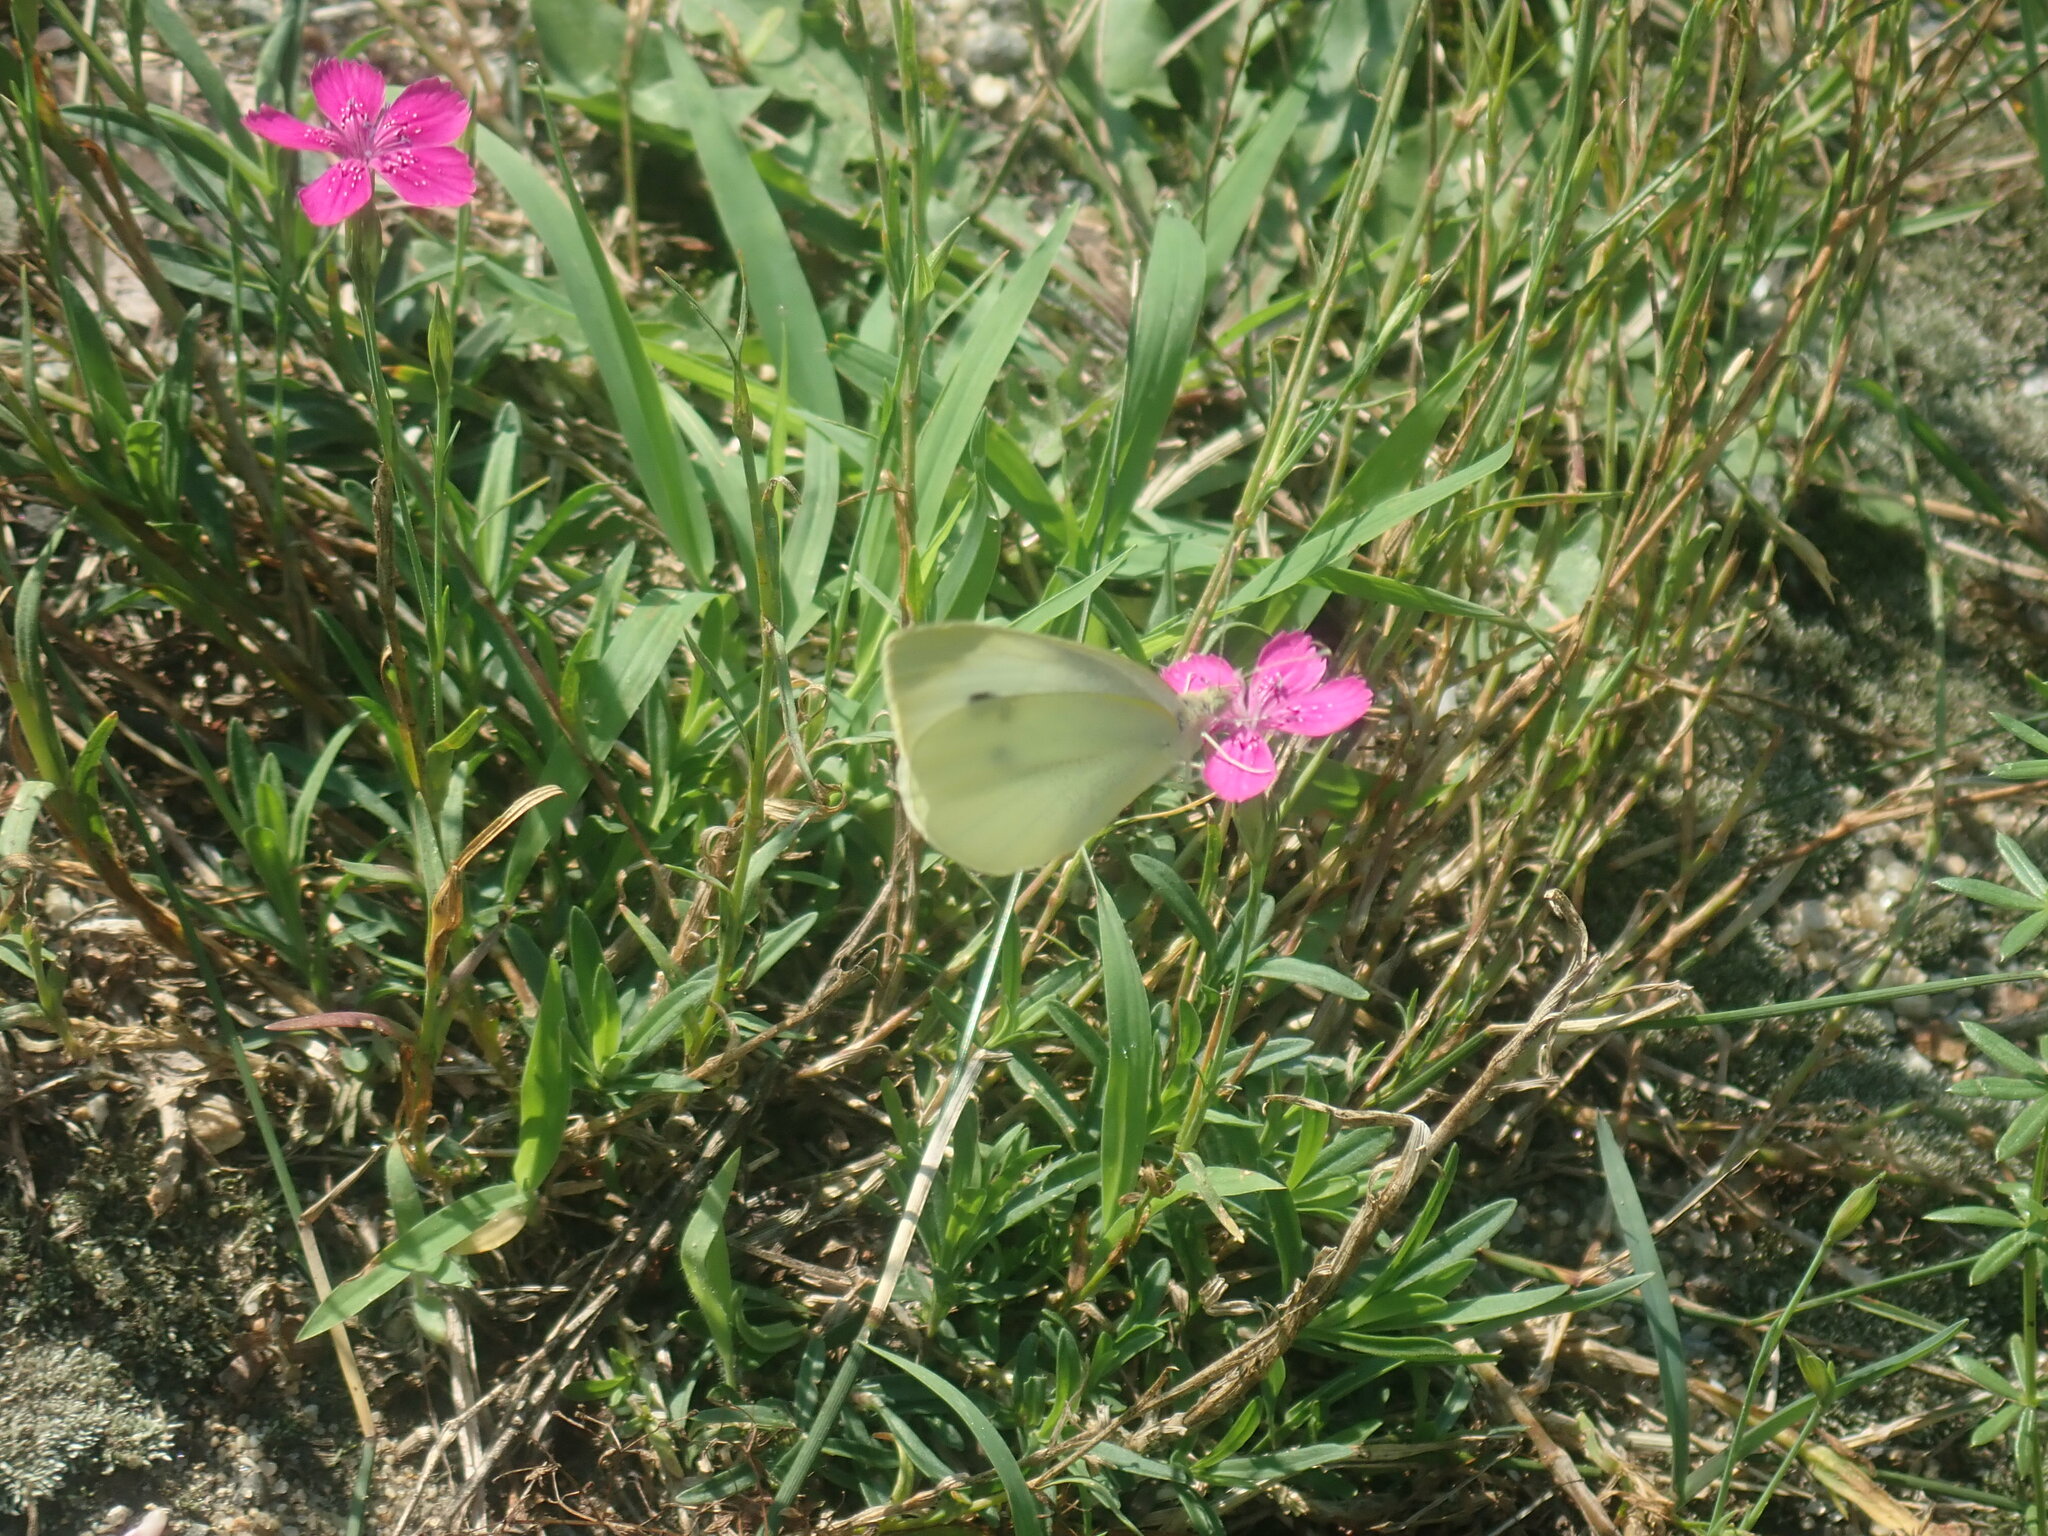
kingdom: Animalia
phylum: Arthropoda
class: Insecta
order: Lepidoptera
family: Pieridae
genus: Pieris
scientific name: Pieris rapae
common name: Small white
